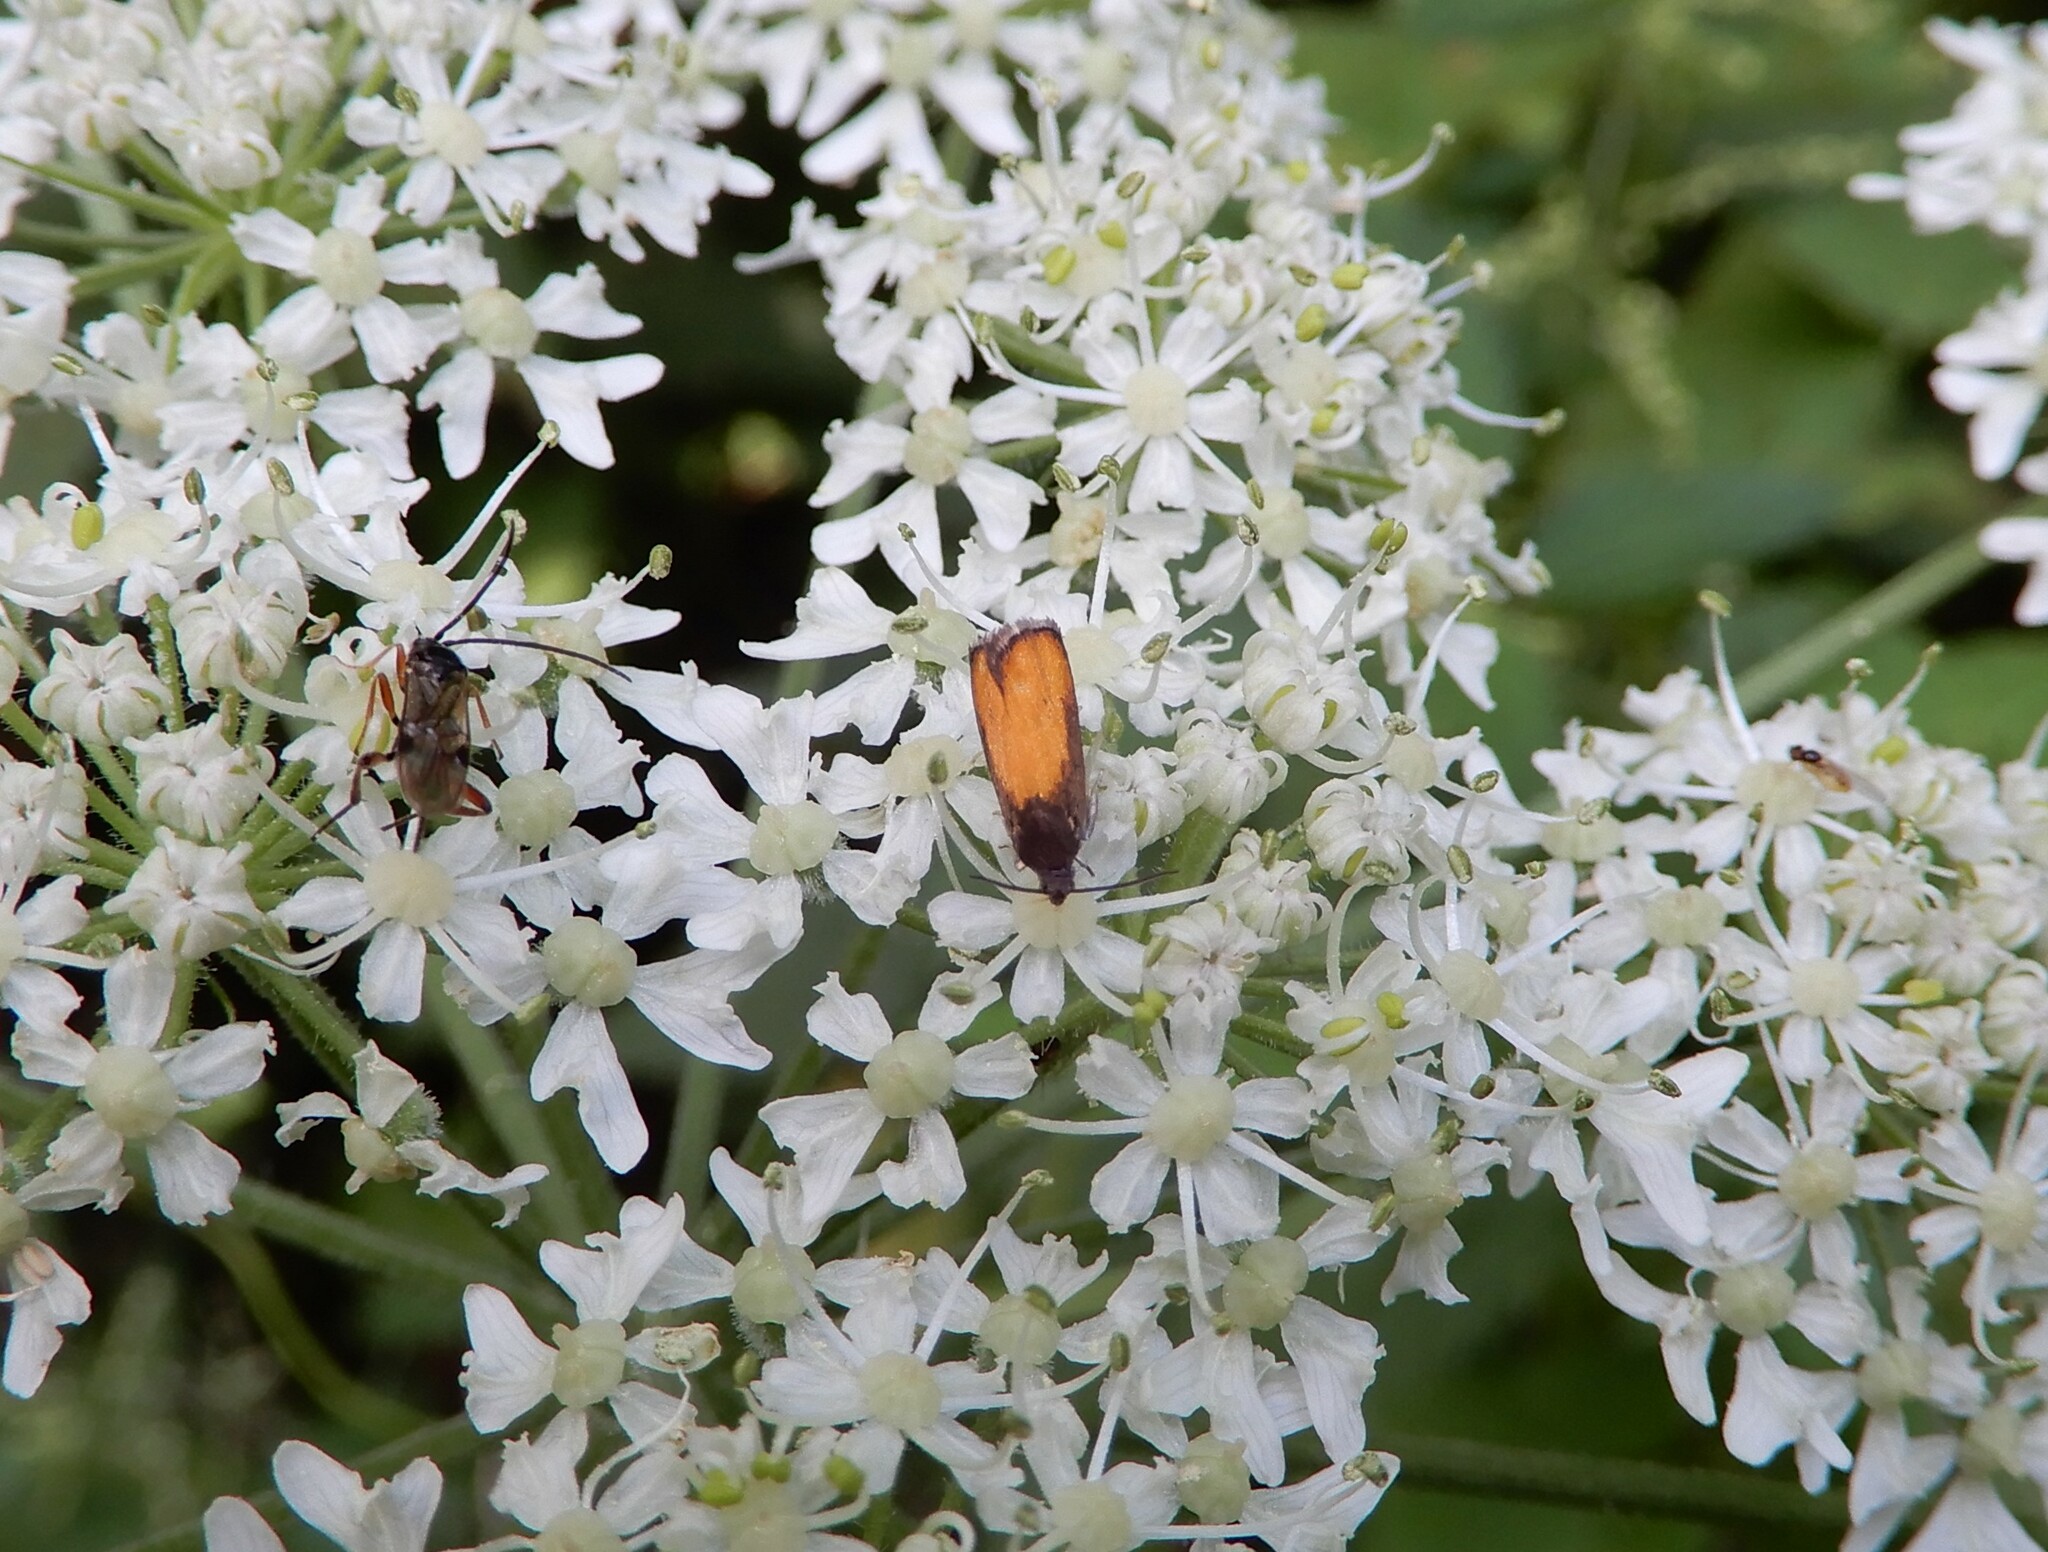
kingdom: Animalia
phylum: Arthropoda
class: Insecta
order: Lepidoptera
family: Tortricidae
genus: Pammene
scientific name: Pammene aurana
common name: Orange-spot piercer
